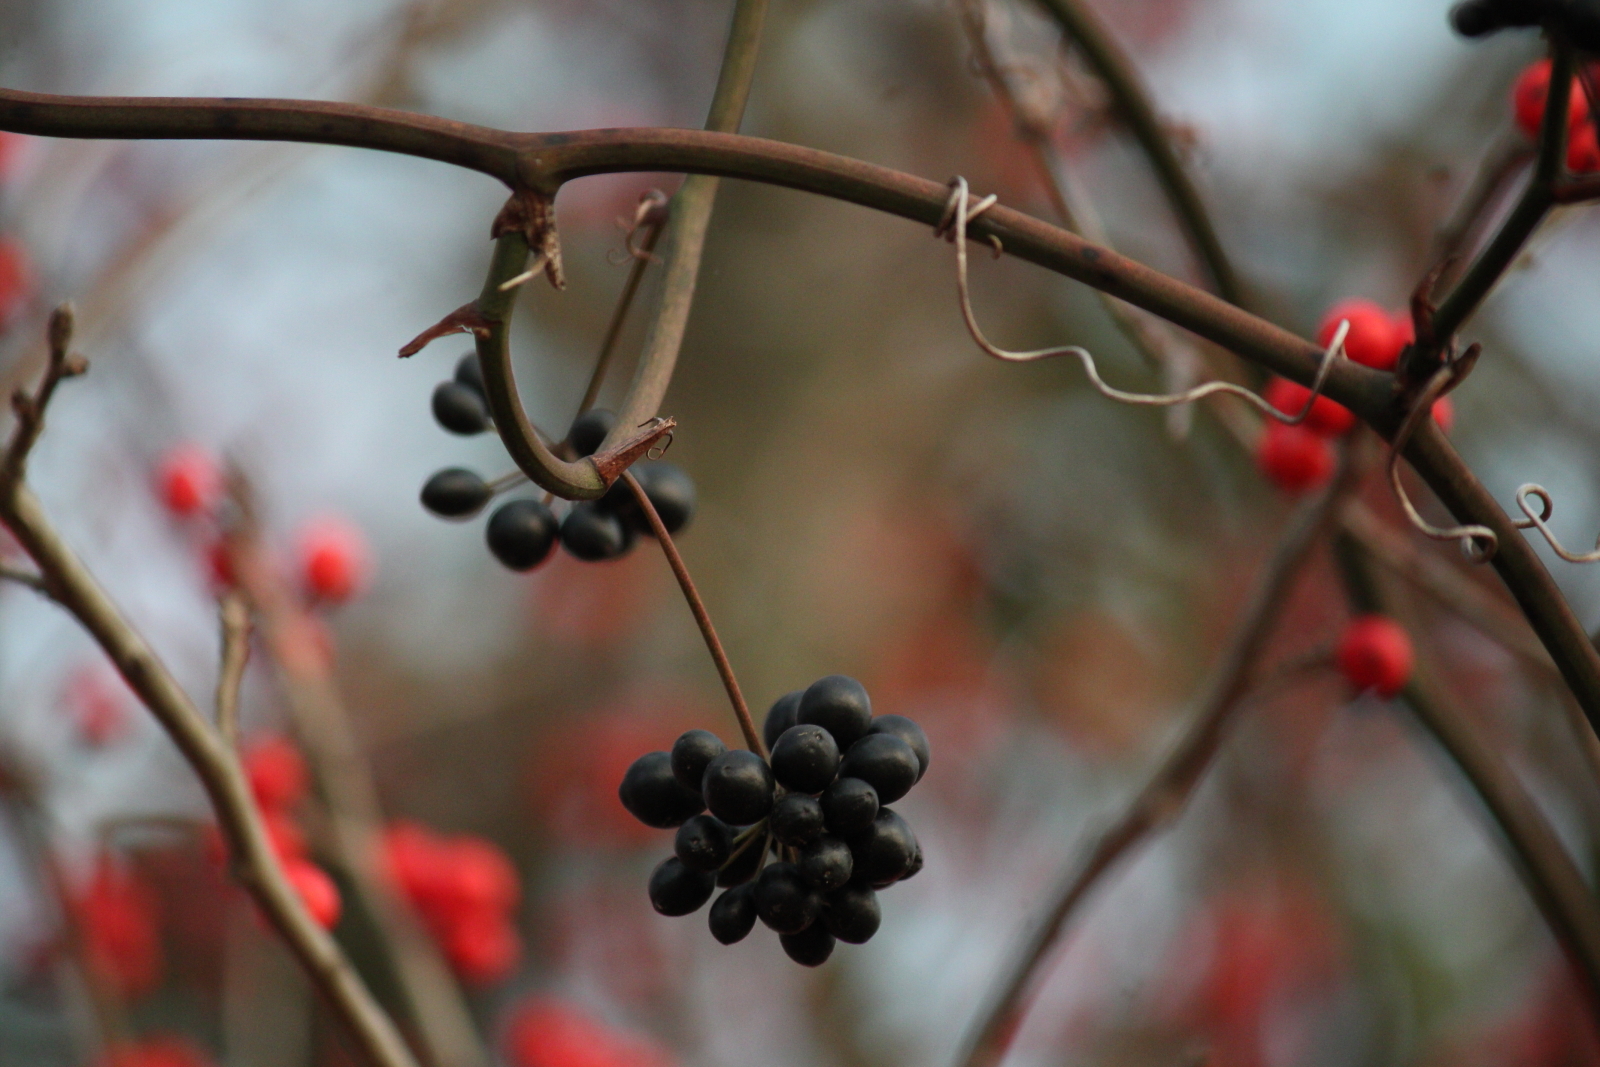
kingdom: Plantae
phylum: Tracheophyta
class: Liliopsida
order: Liliales
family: Smilacaceae
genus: Smilax
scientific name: Smilax rotundifolia
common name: Bullbriar
